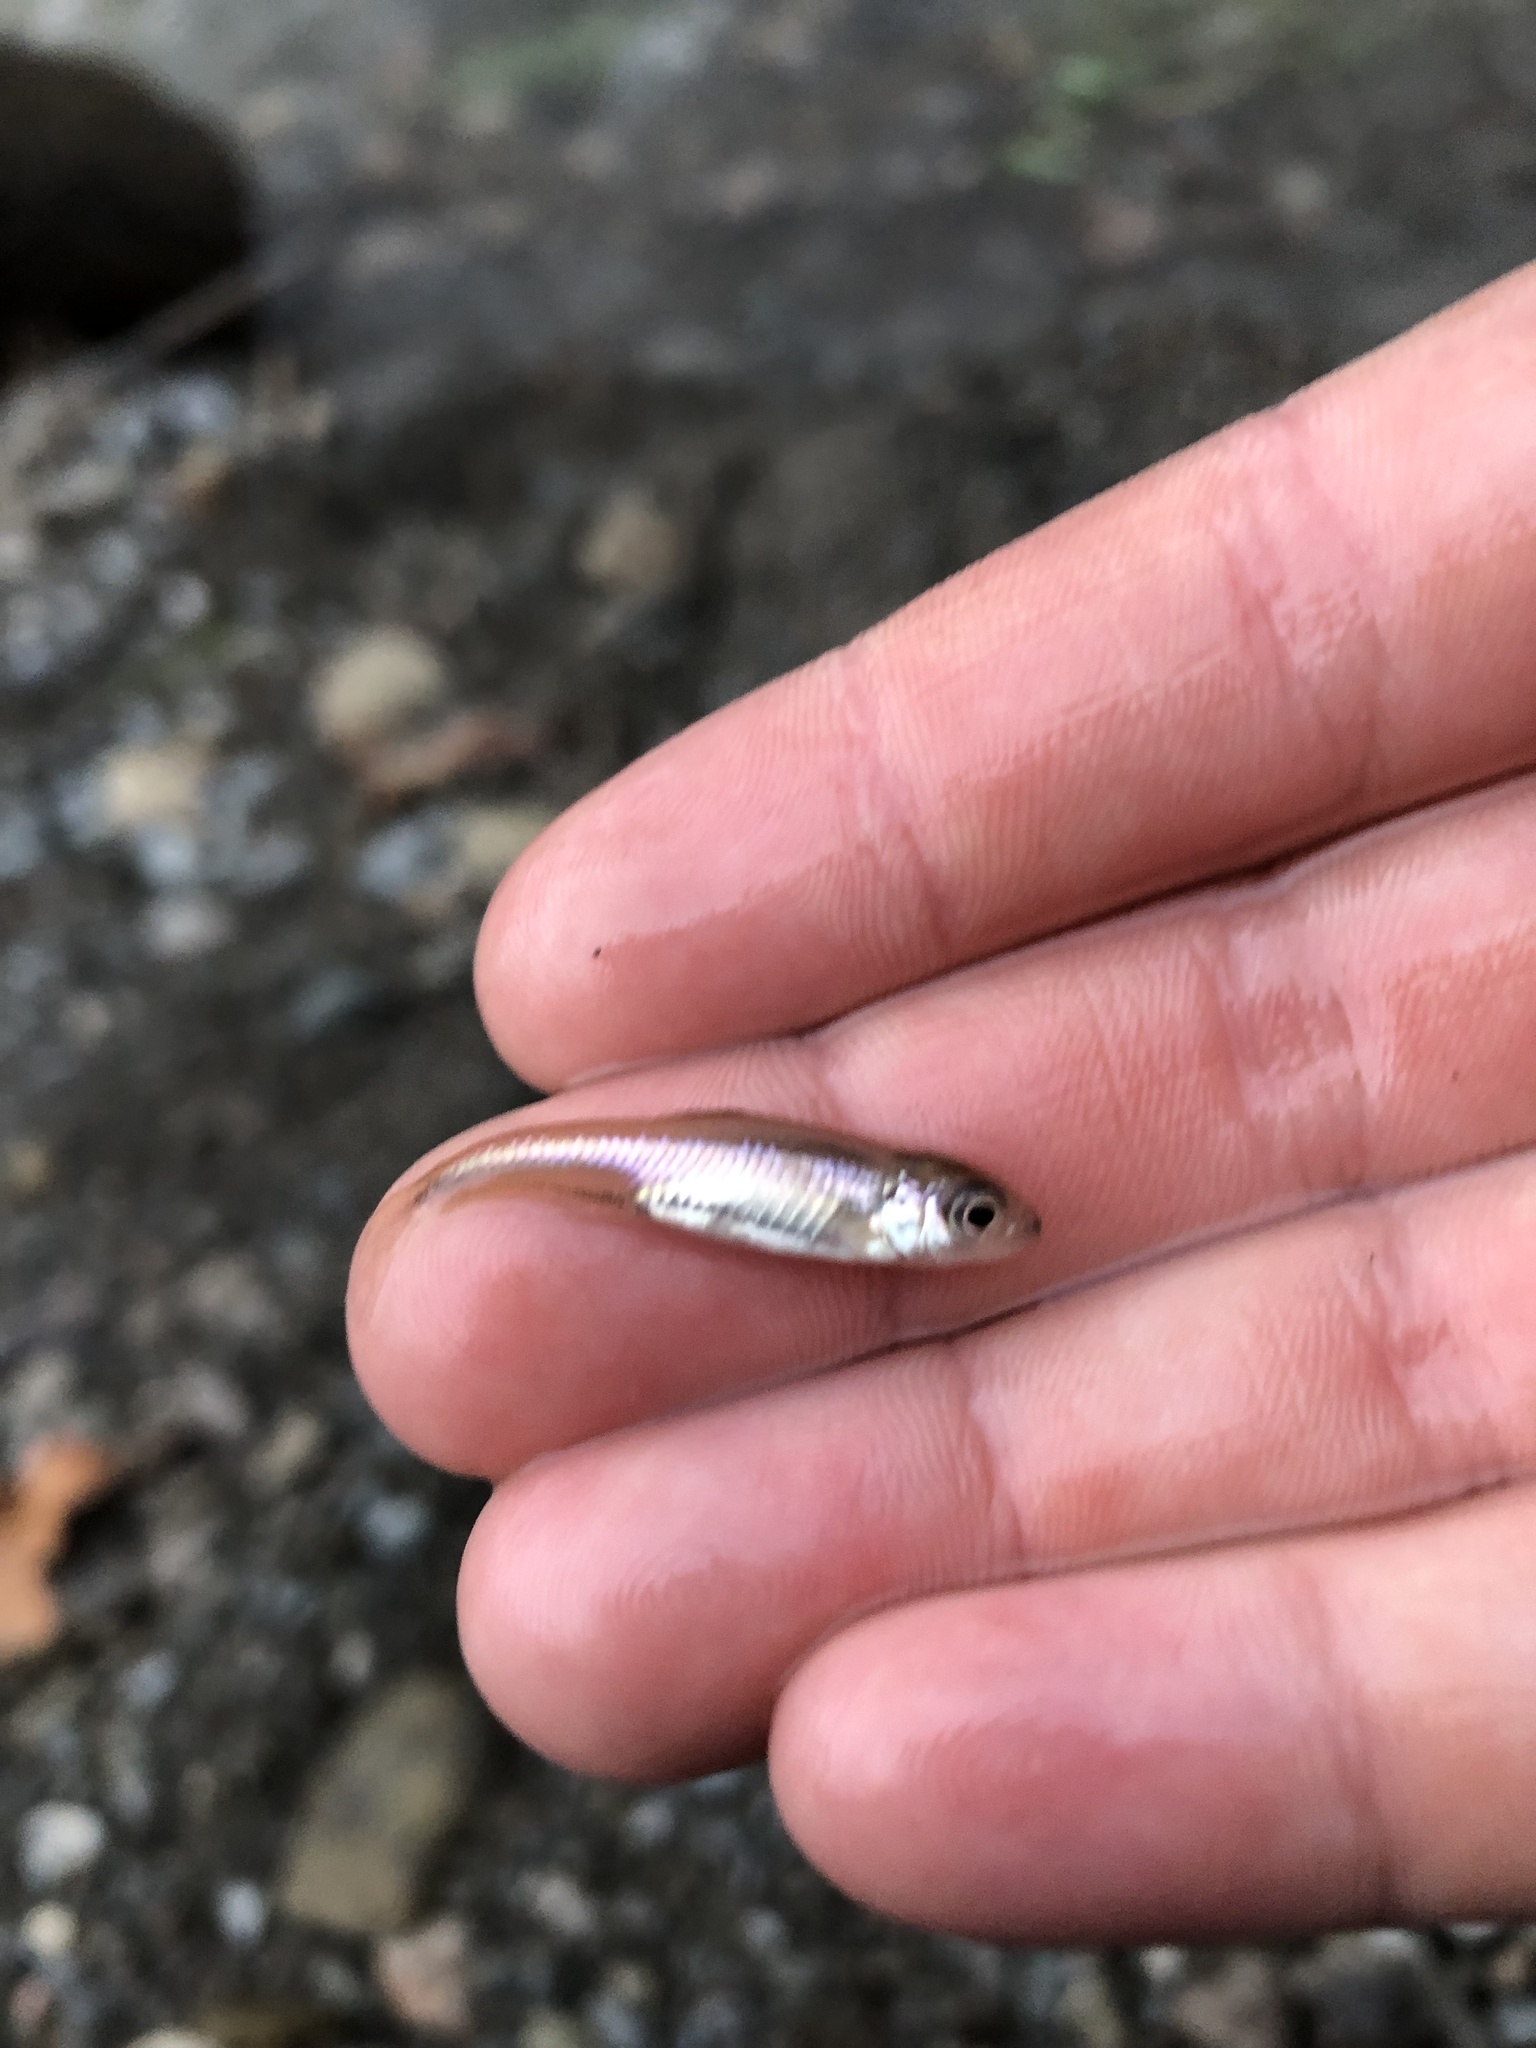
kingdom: Animalia
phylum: Chordata
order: Cypriniformes
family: Leuciscidae
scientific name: Leuciscidae
